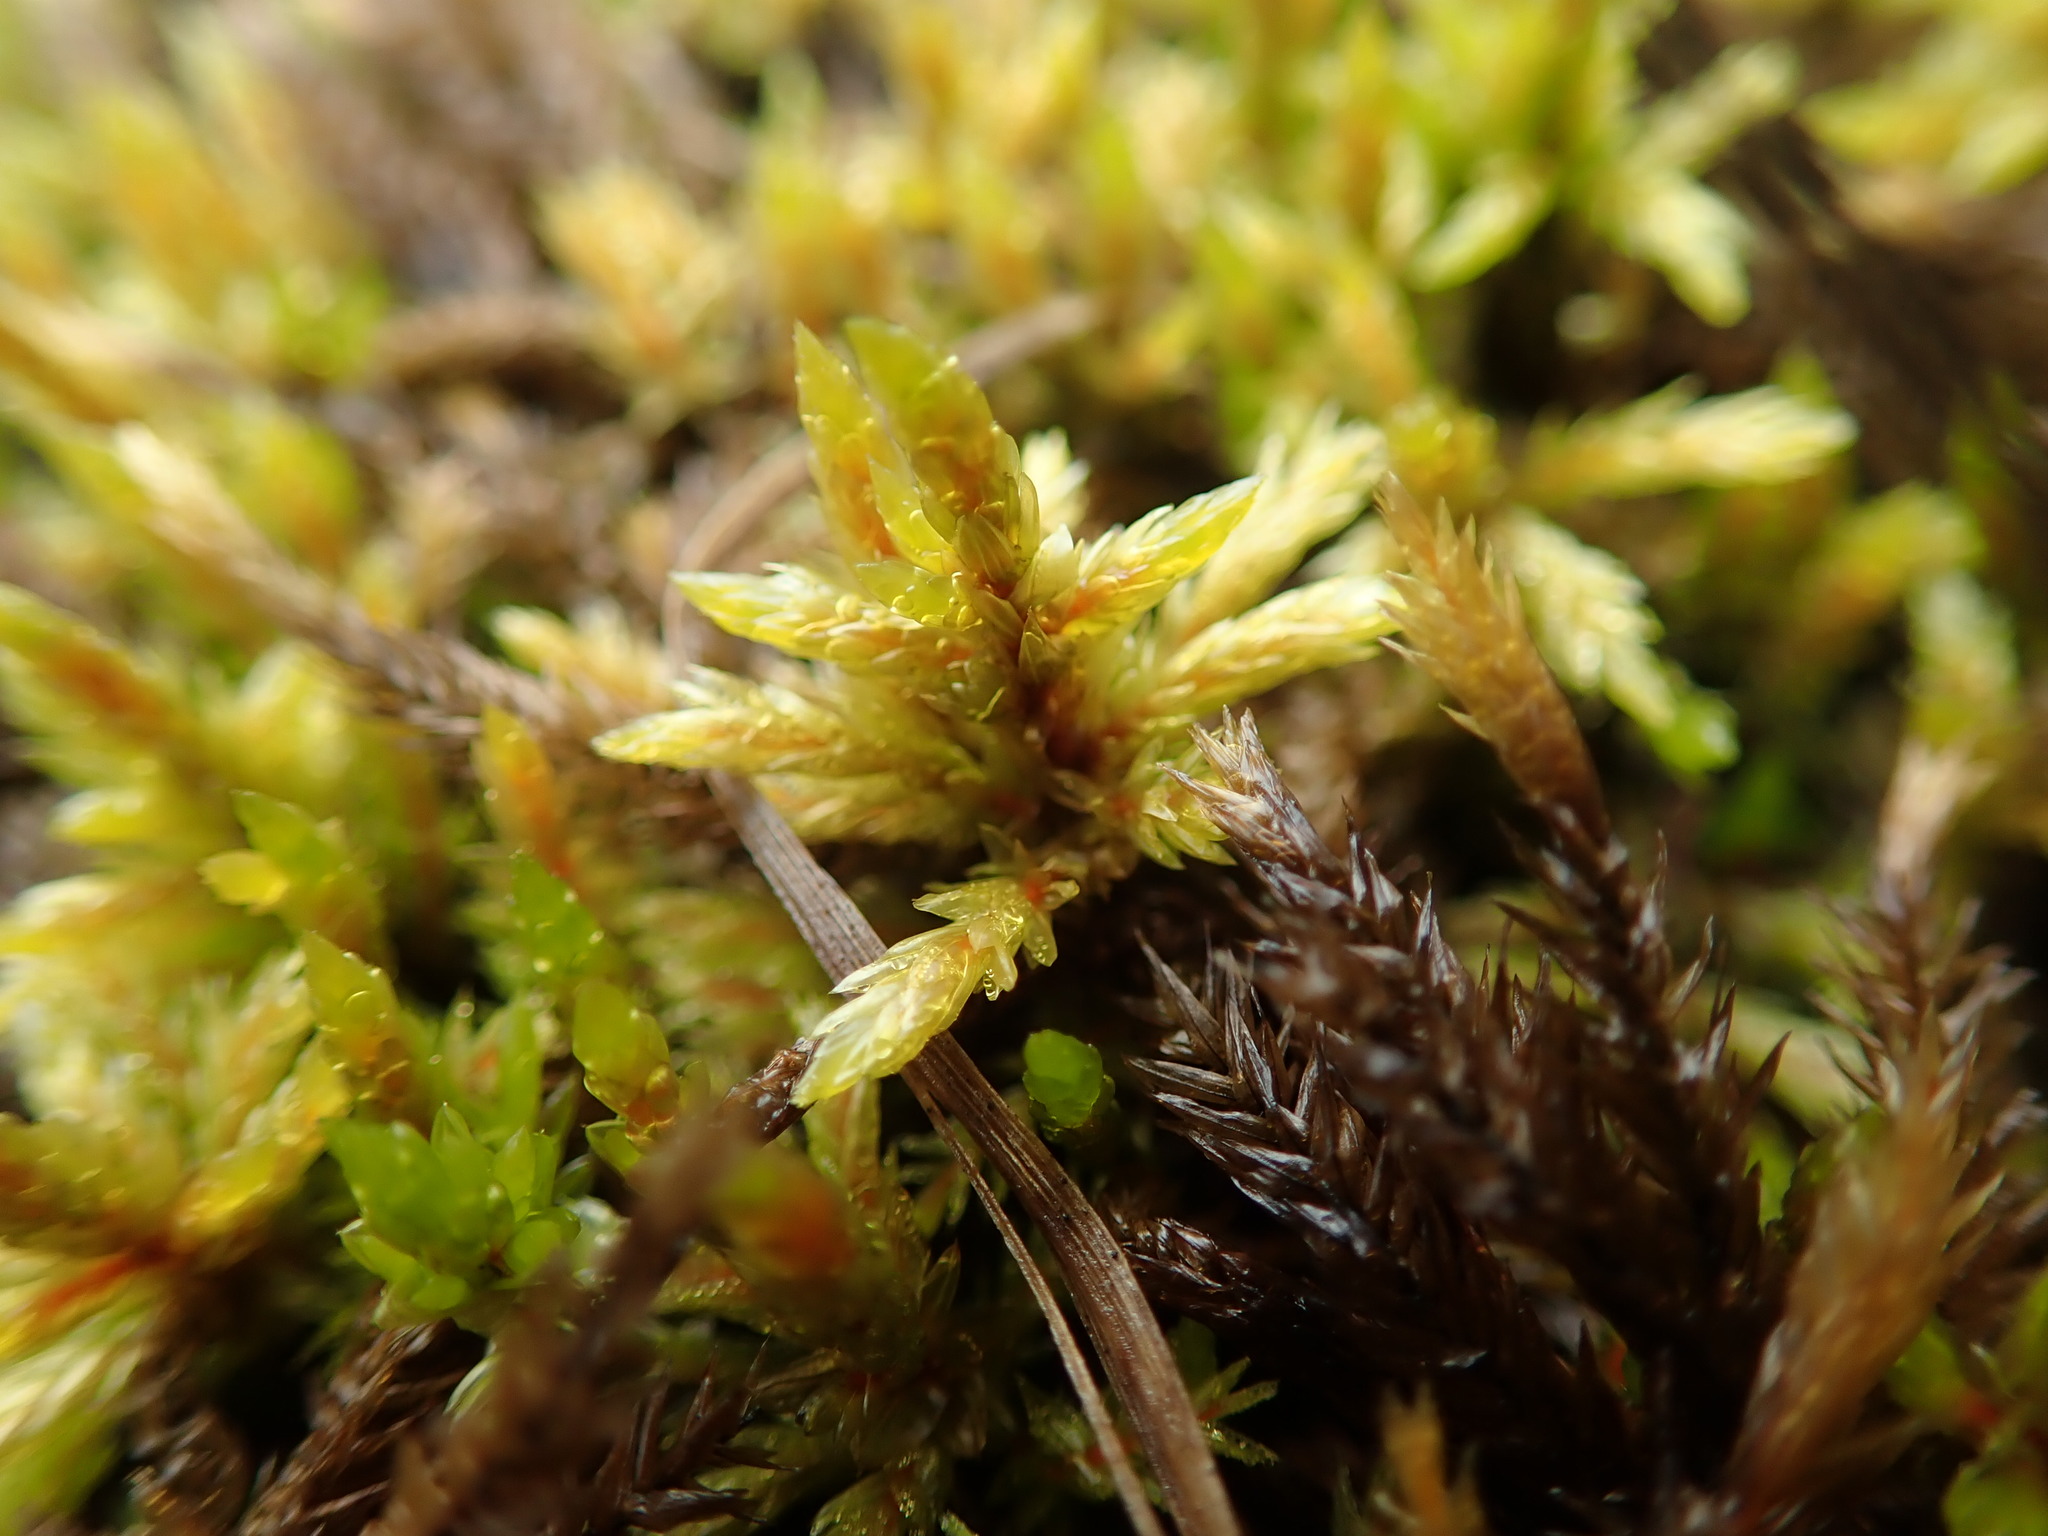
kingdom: Plantae
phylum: Bryophyta
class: Bryopsida
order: Hypnales
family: Climaciaceae
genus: Climacium
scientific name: Climacium dendroides
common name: Northern tree moss
